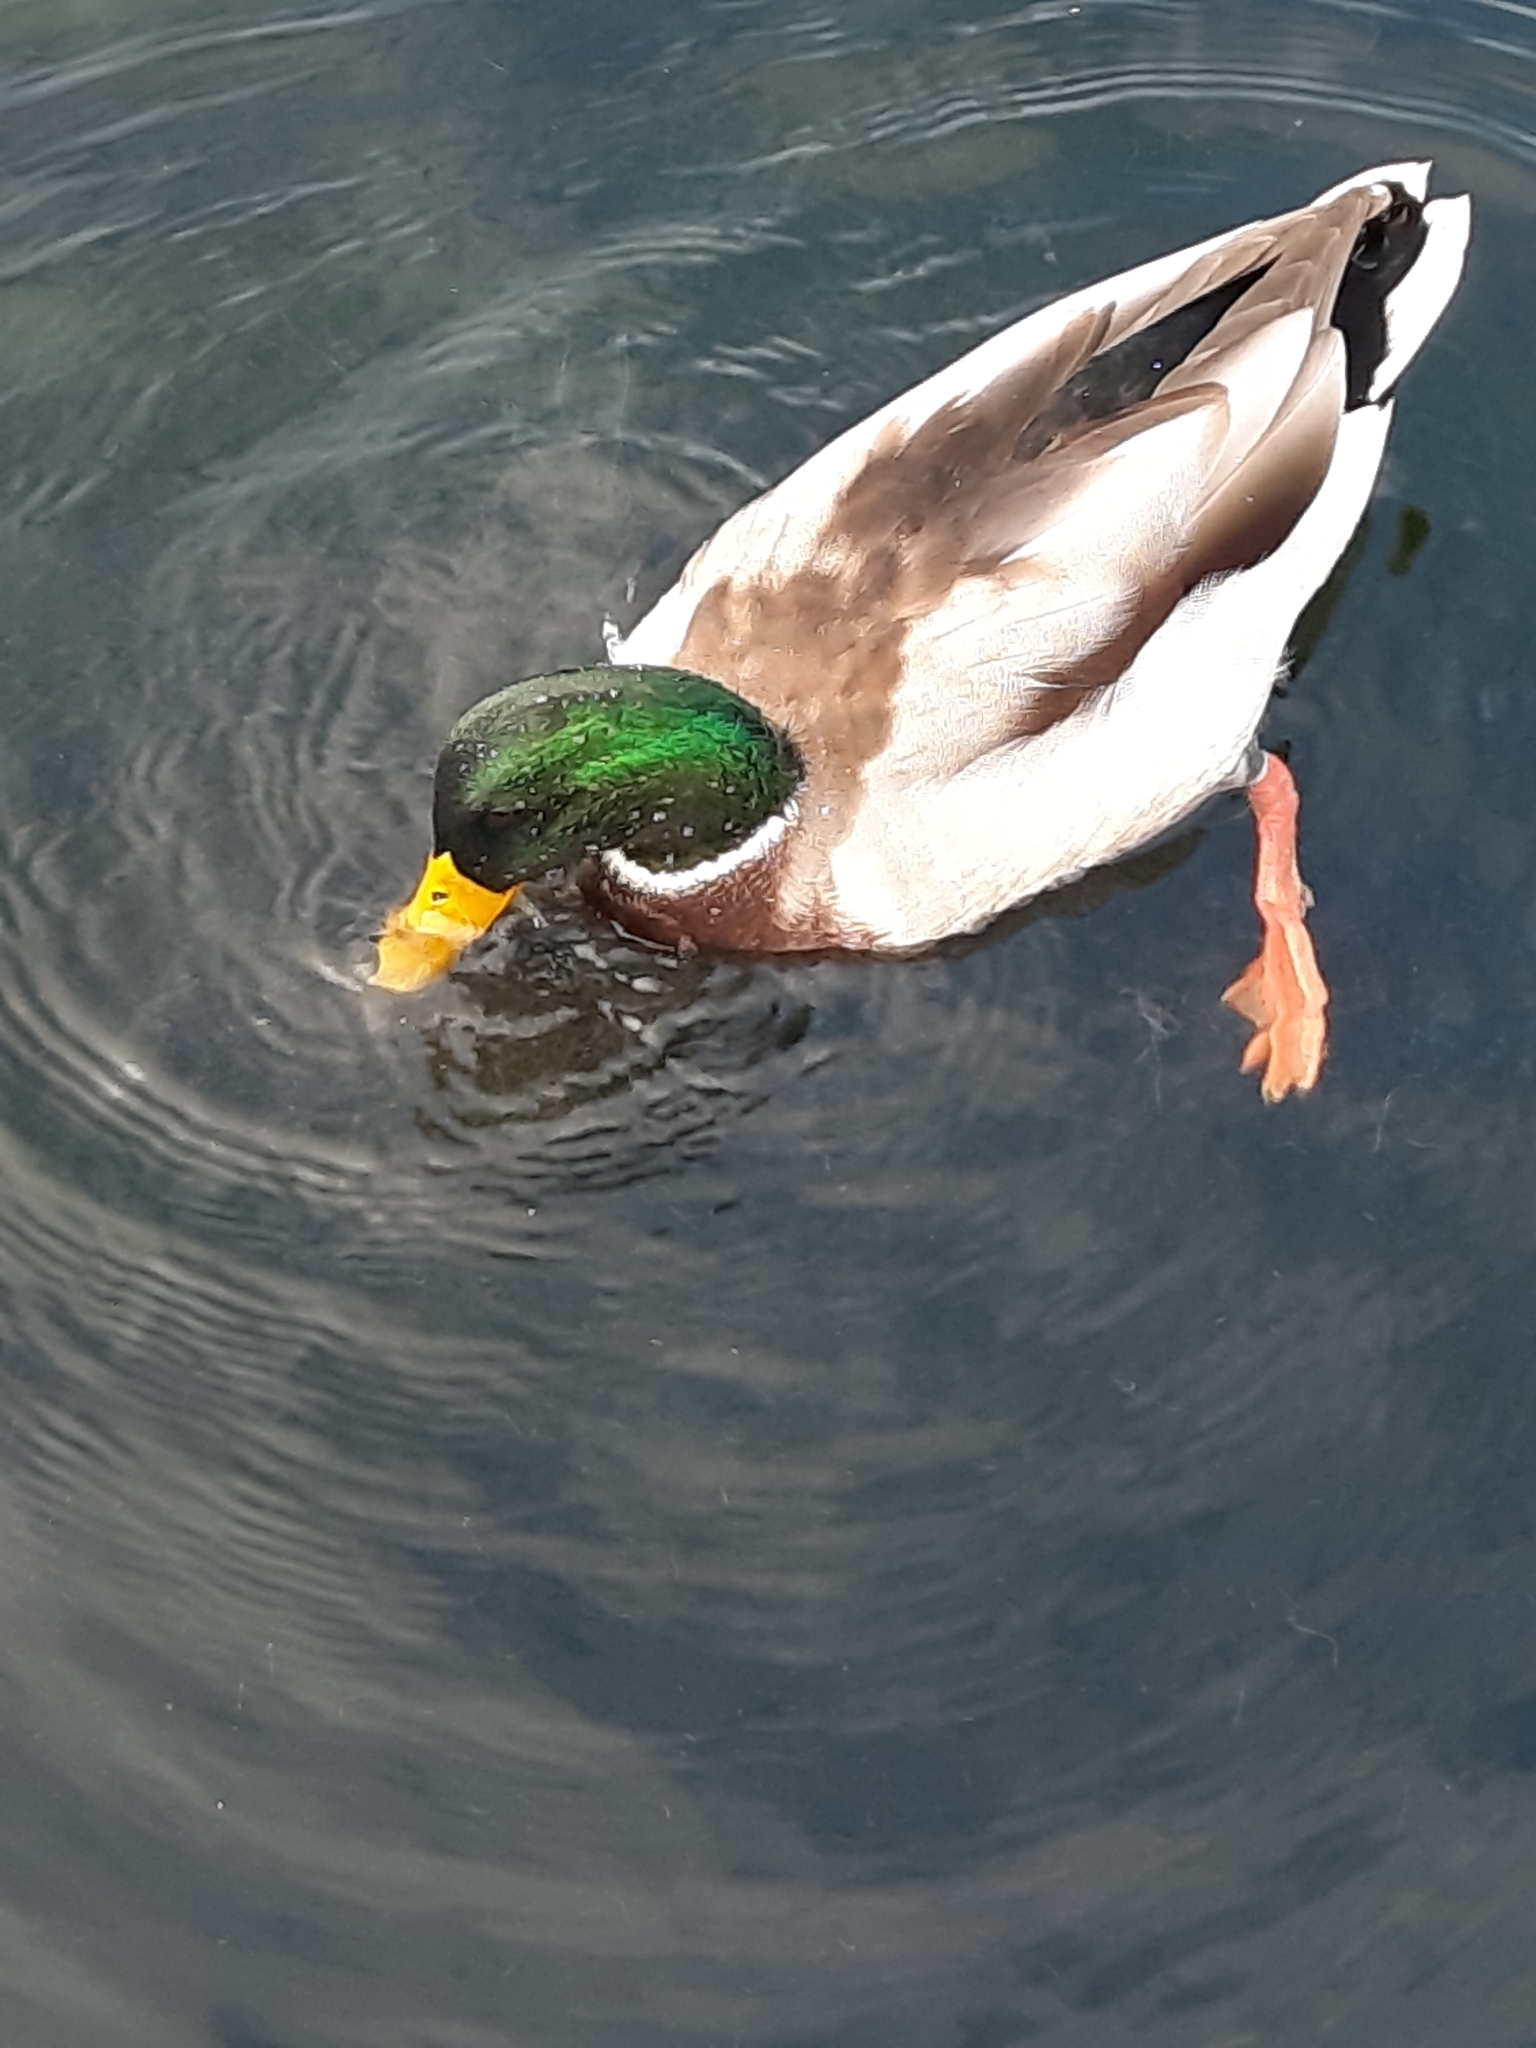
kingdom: Animalia
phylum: Chordata
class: Aves
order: Anseriformes
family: Anatidae
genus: Anas
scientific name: Anas platyrhynchos
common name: Mallard
